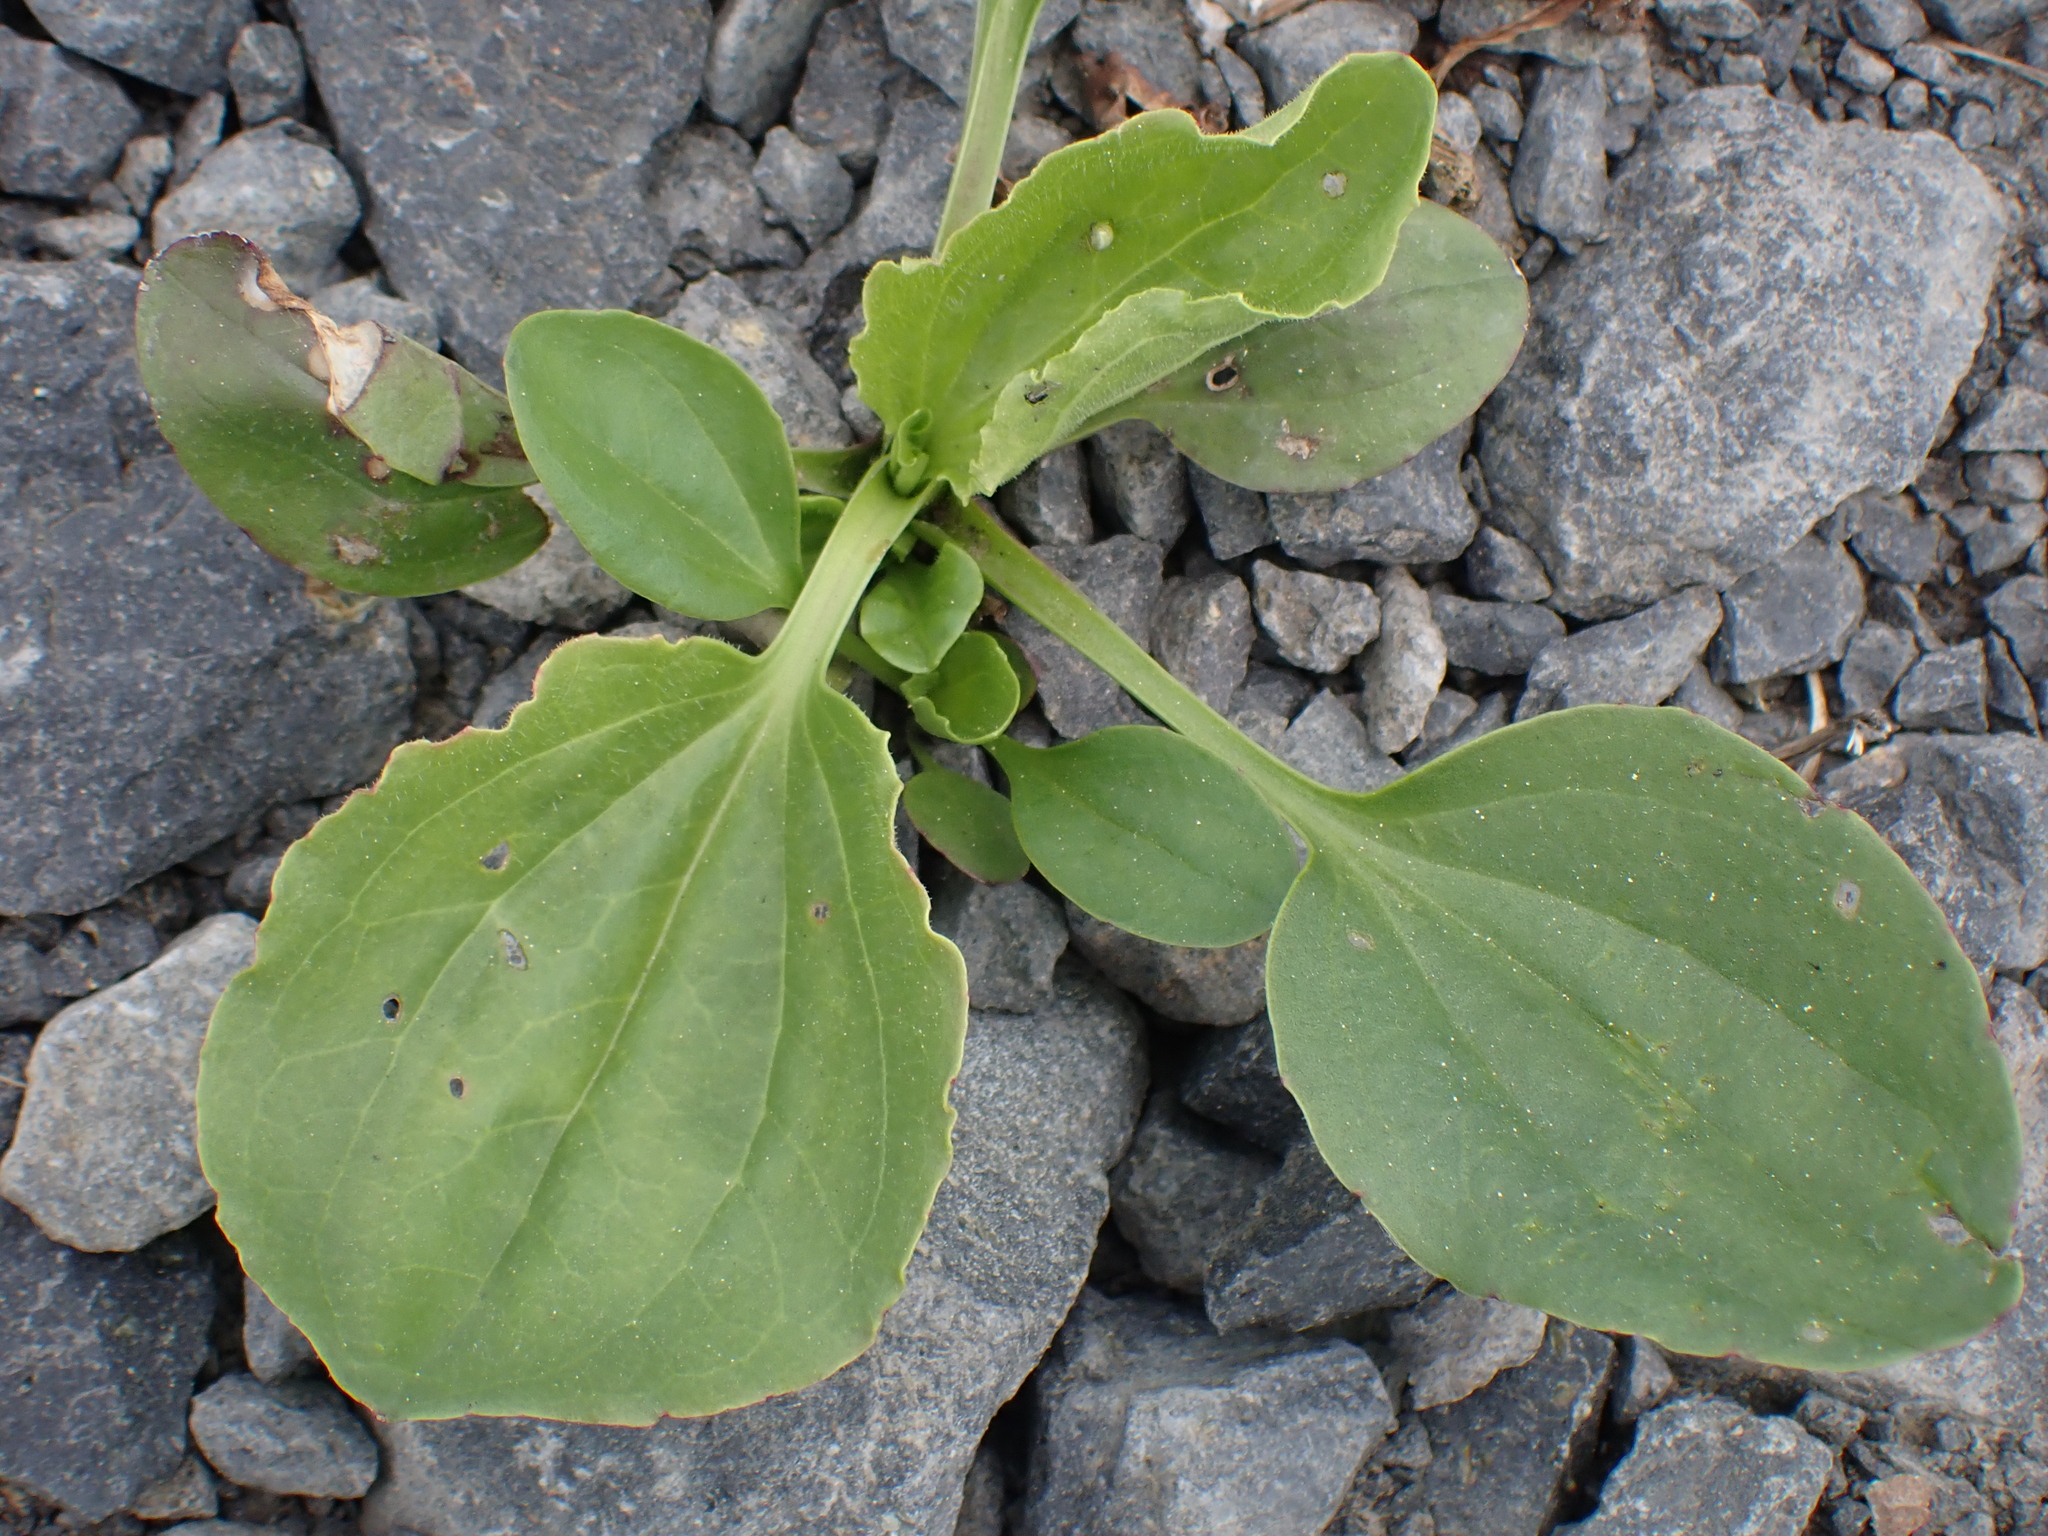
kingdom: Plantae
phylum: Tracheophyta
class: Magnoliopsida
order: Lamiales
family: Plantaginaceae
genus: Plantago
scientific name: Plantago major
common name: Common plantain
